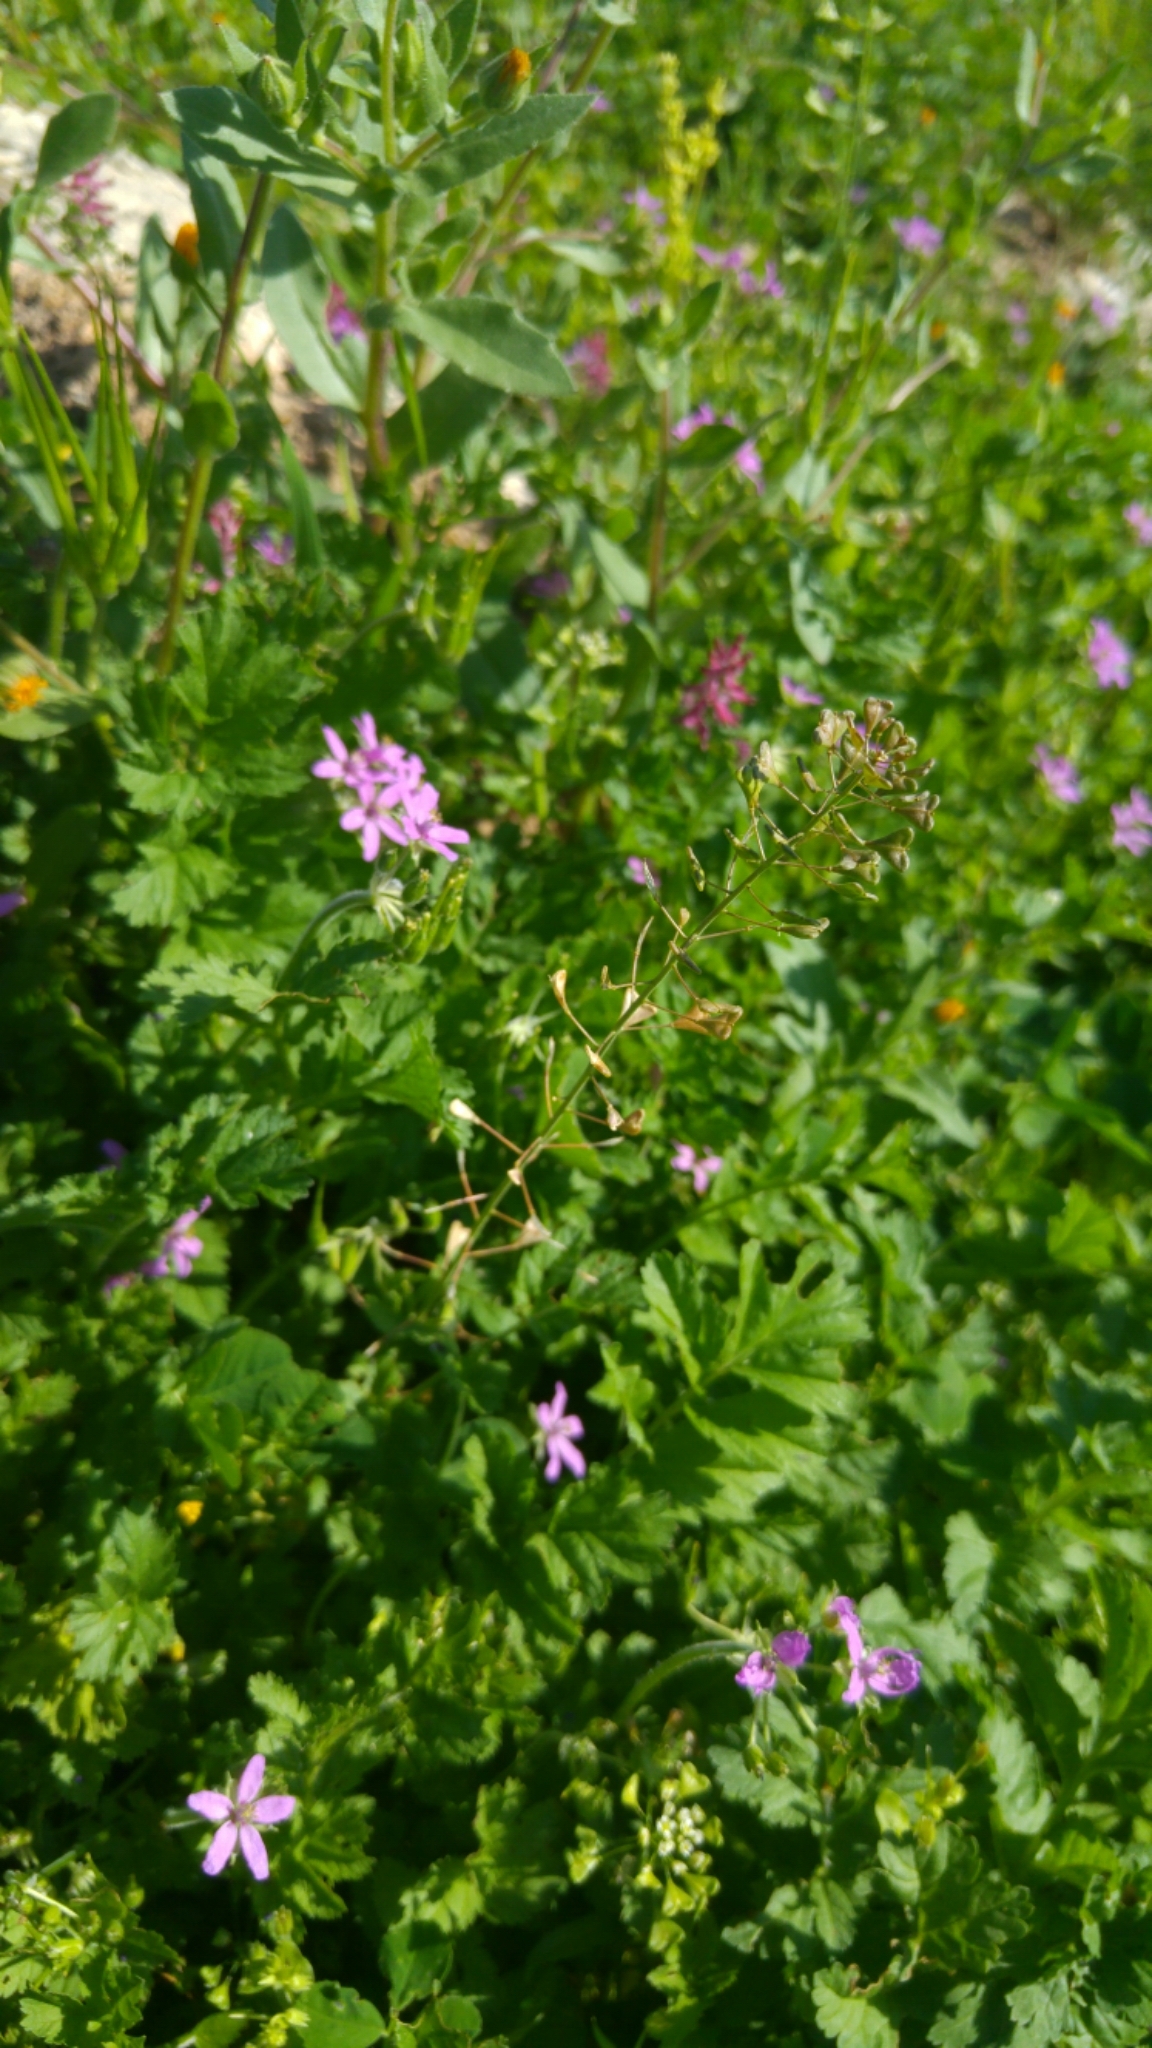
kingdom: Plantae
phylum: Tracheophyta
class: Magnoliopsida
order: Brassicales
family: Brassicaceae
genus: Capsella
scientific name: Capsella bursa-pastoris
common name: Shepherd's purse
